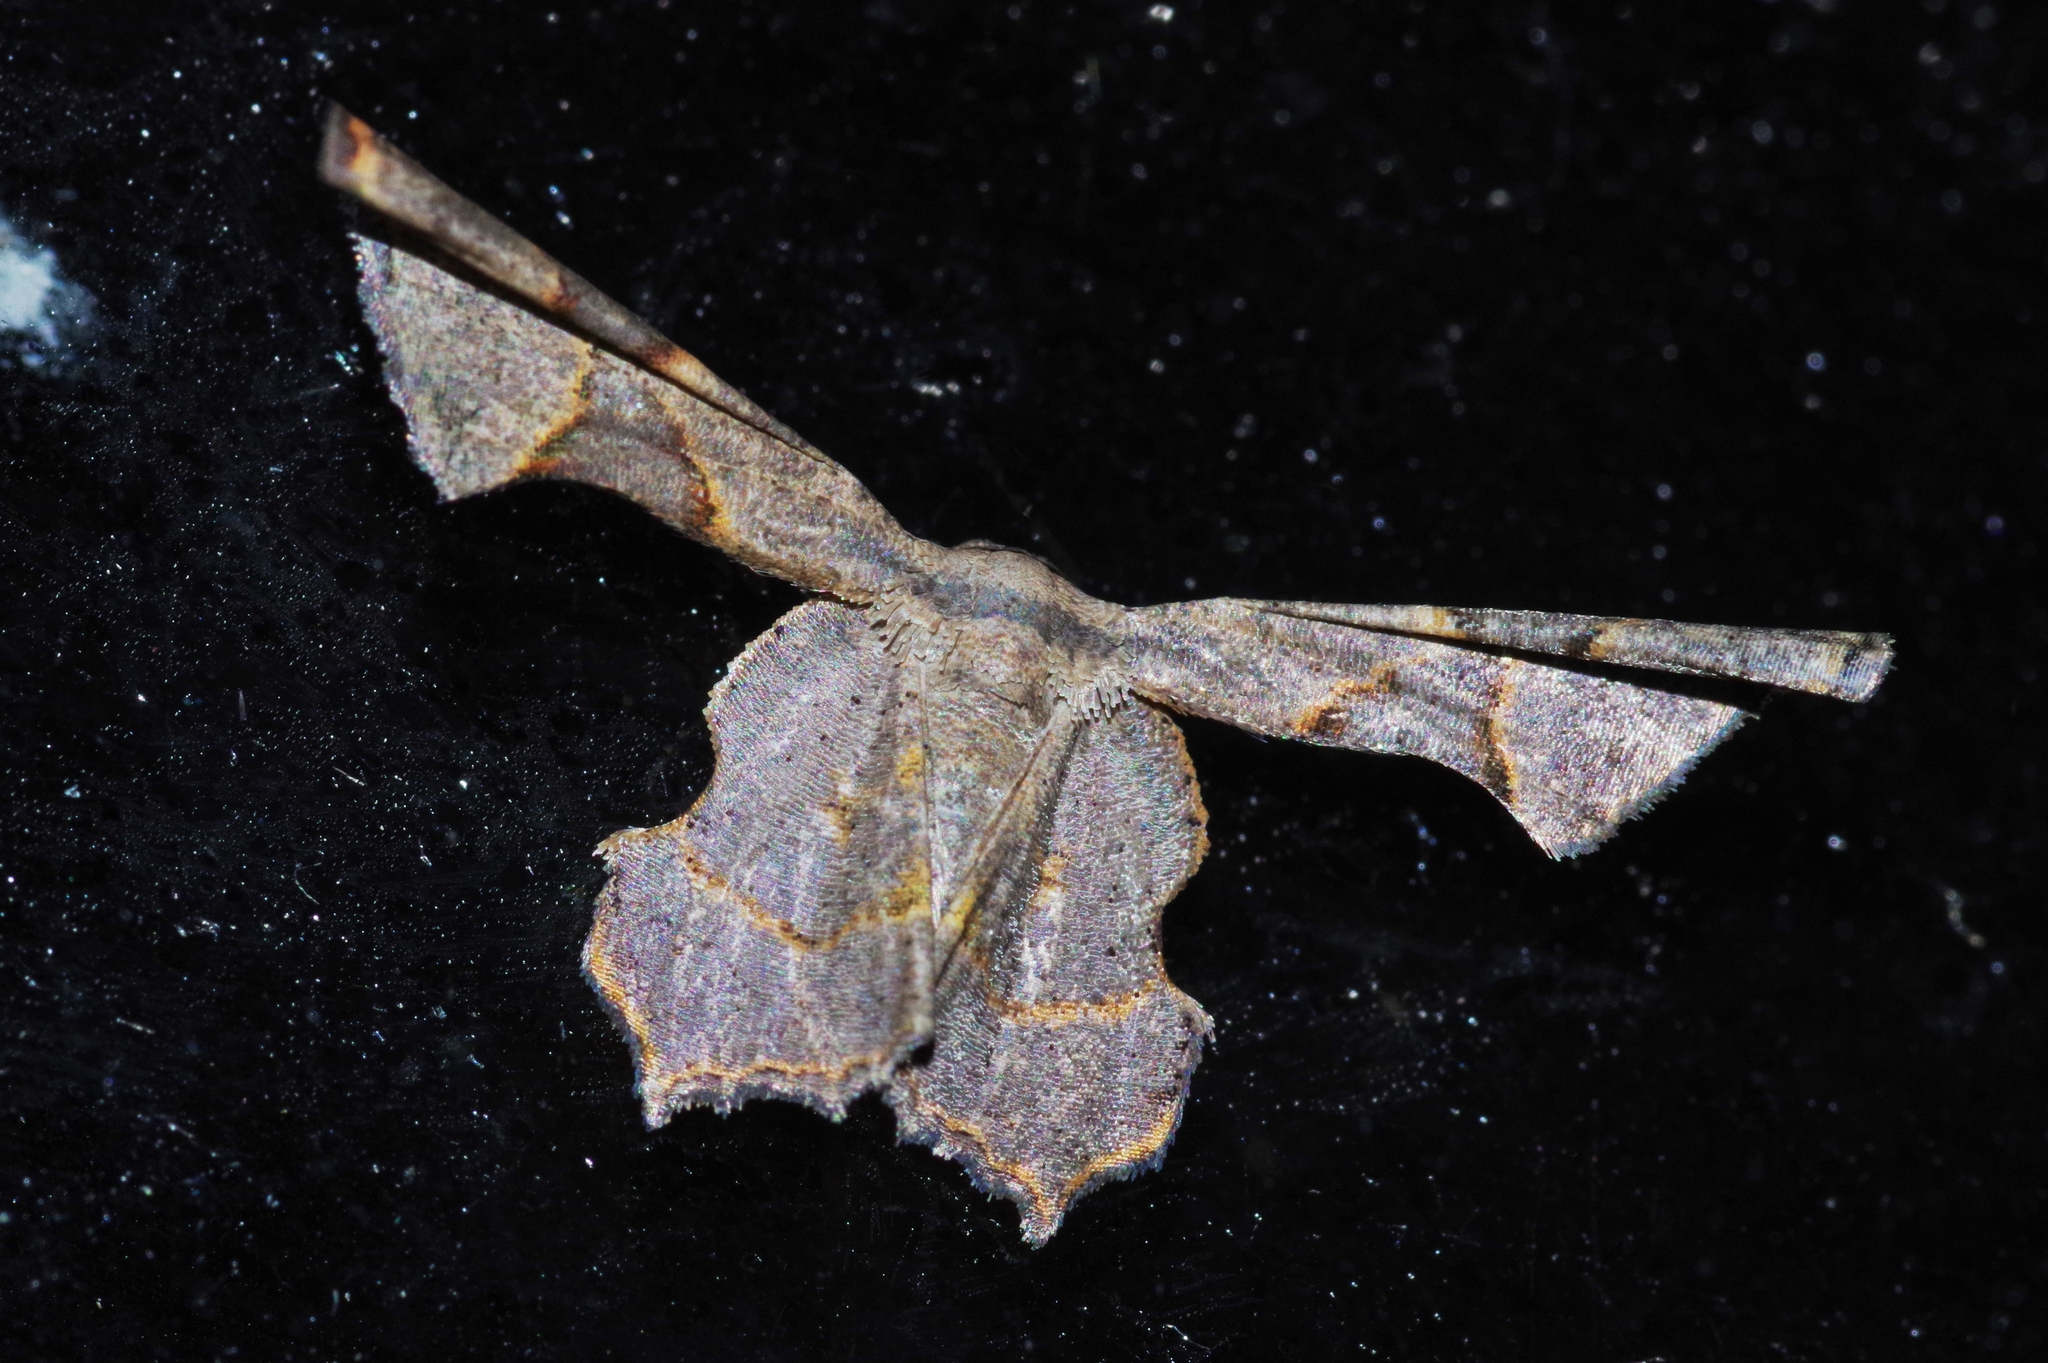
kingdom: Animalia
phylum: Arthropoda
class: Insecta
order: Lepidoptera
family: Uraniidae
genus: Monobolodes
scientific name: Monobolodes prunaria
